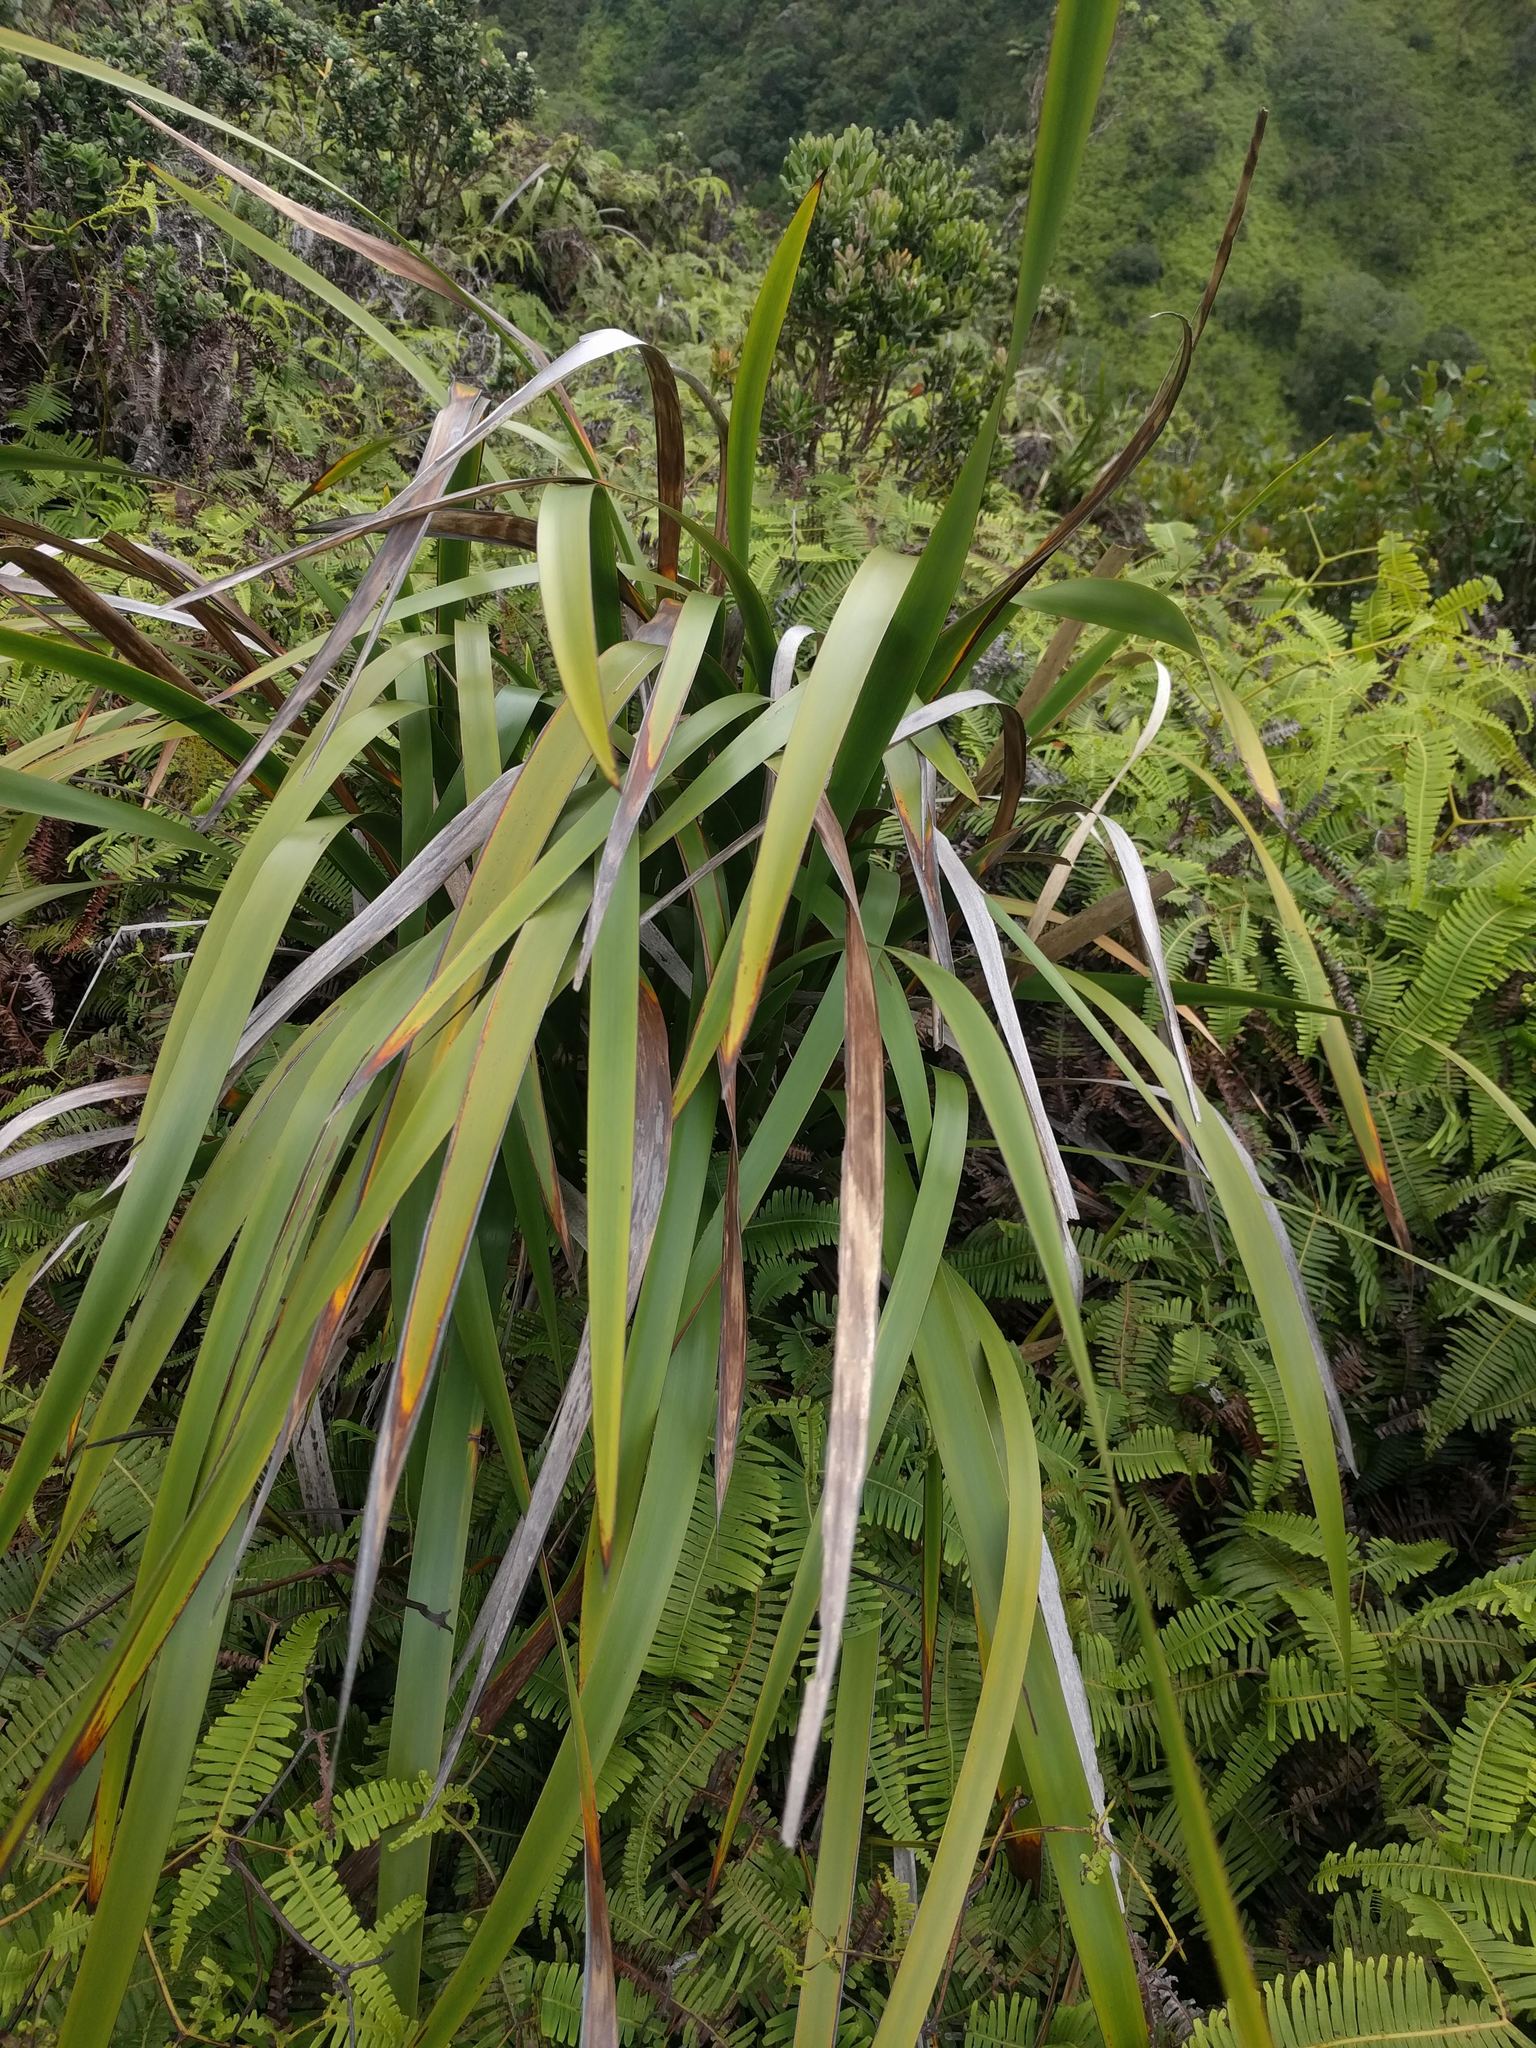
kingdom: Plantae
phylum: Tracheophyta
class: Liliopsida
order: Poales
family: Cyperaceae
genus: Machaerina
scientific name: Machaerina angustifolia
